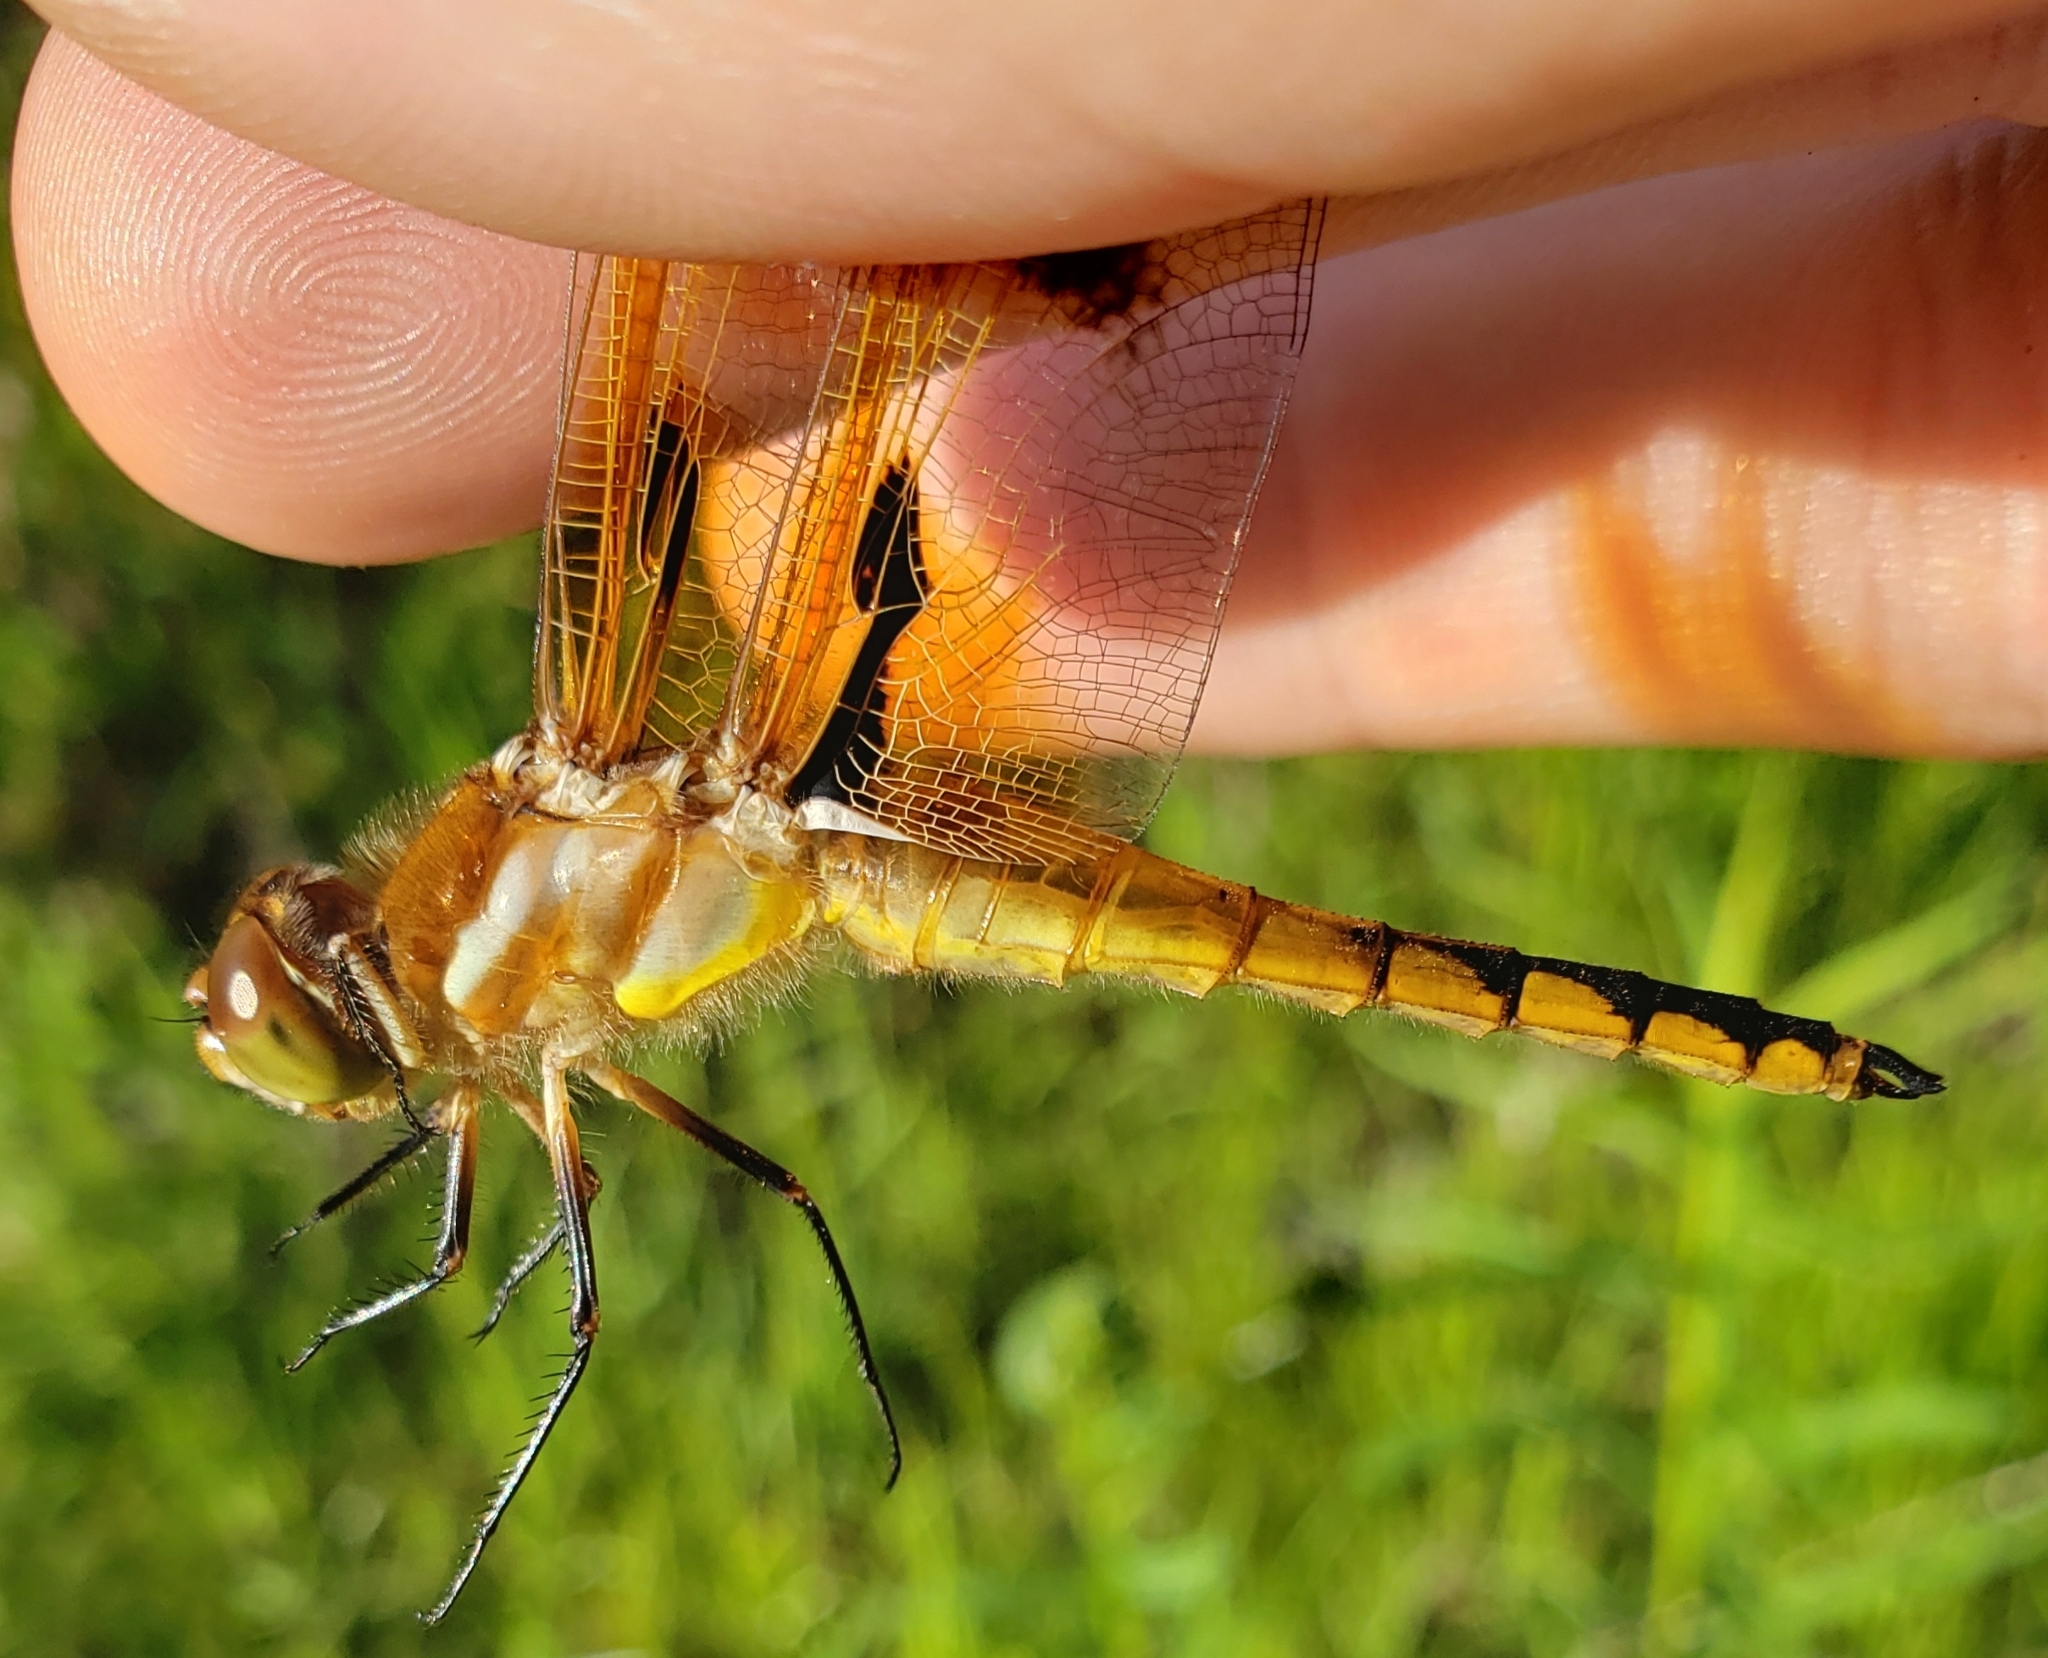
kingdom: Animalia
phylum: Arthropoda
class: Insecta
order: Odonata
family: Libellulidae
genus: Libellula
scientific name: Libellula semifasciata
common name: Painted skimmer
